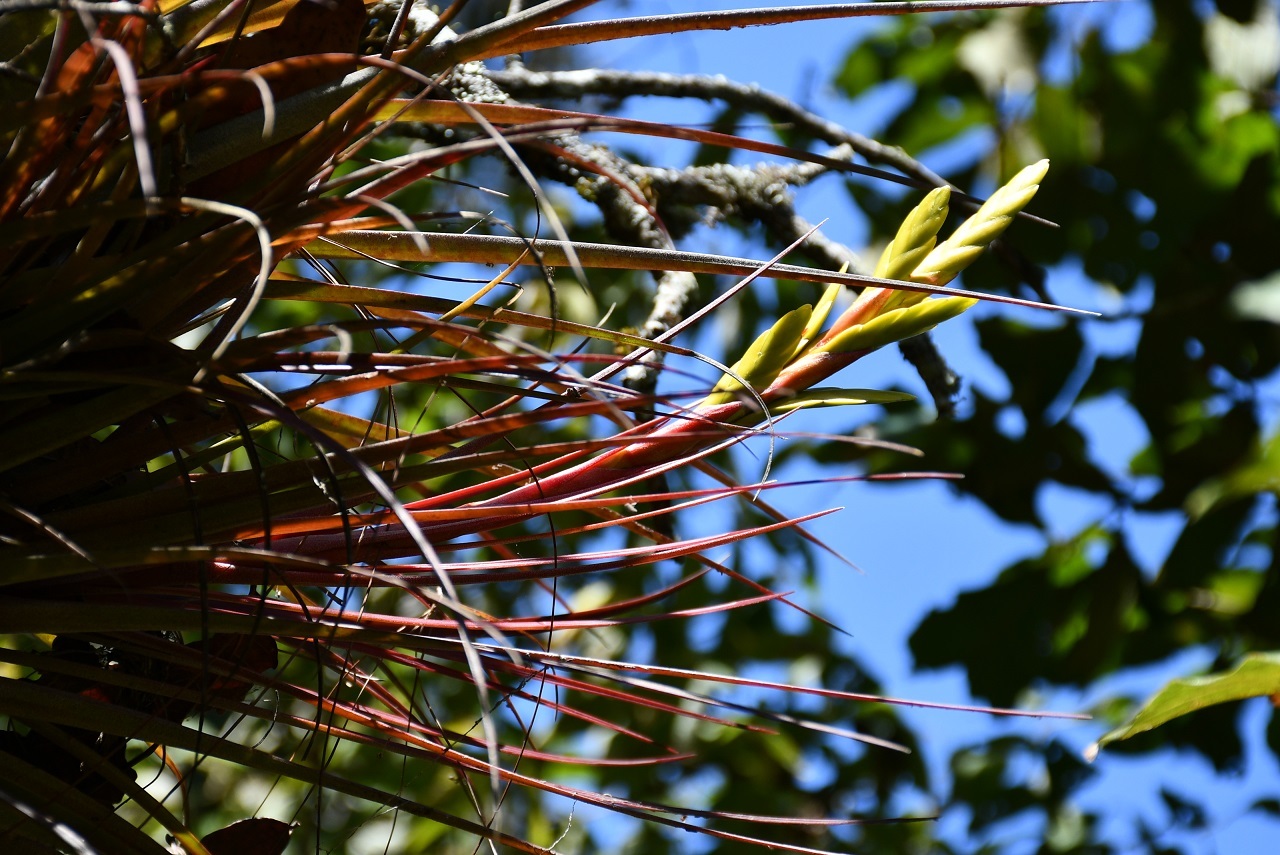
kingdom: Plantae
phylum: Tracheophyta
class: Liliopsida
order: Poales
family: Bromeliaceae
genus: Tillandsia
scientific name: Tillandsia rodrigueziana
